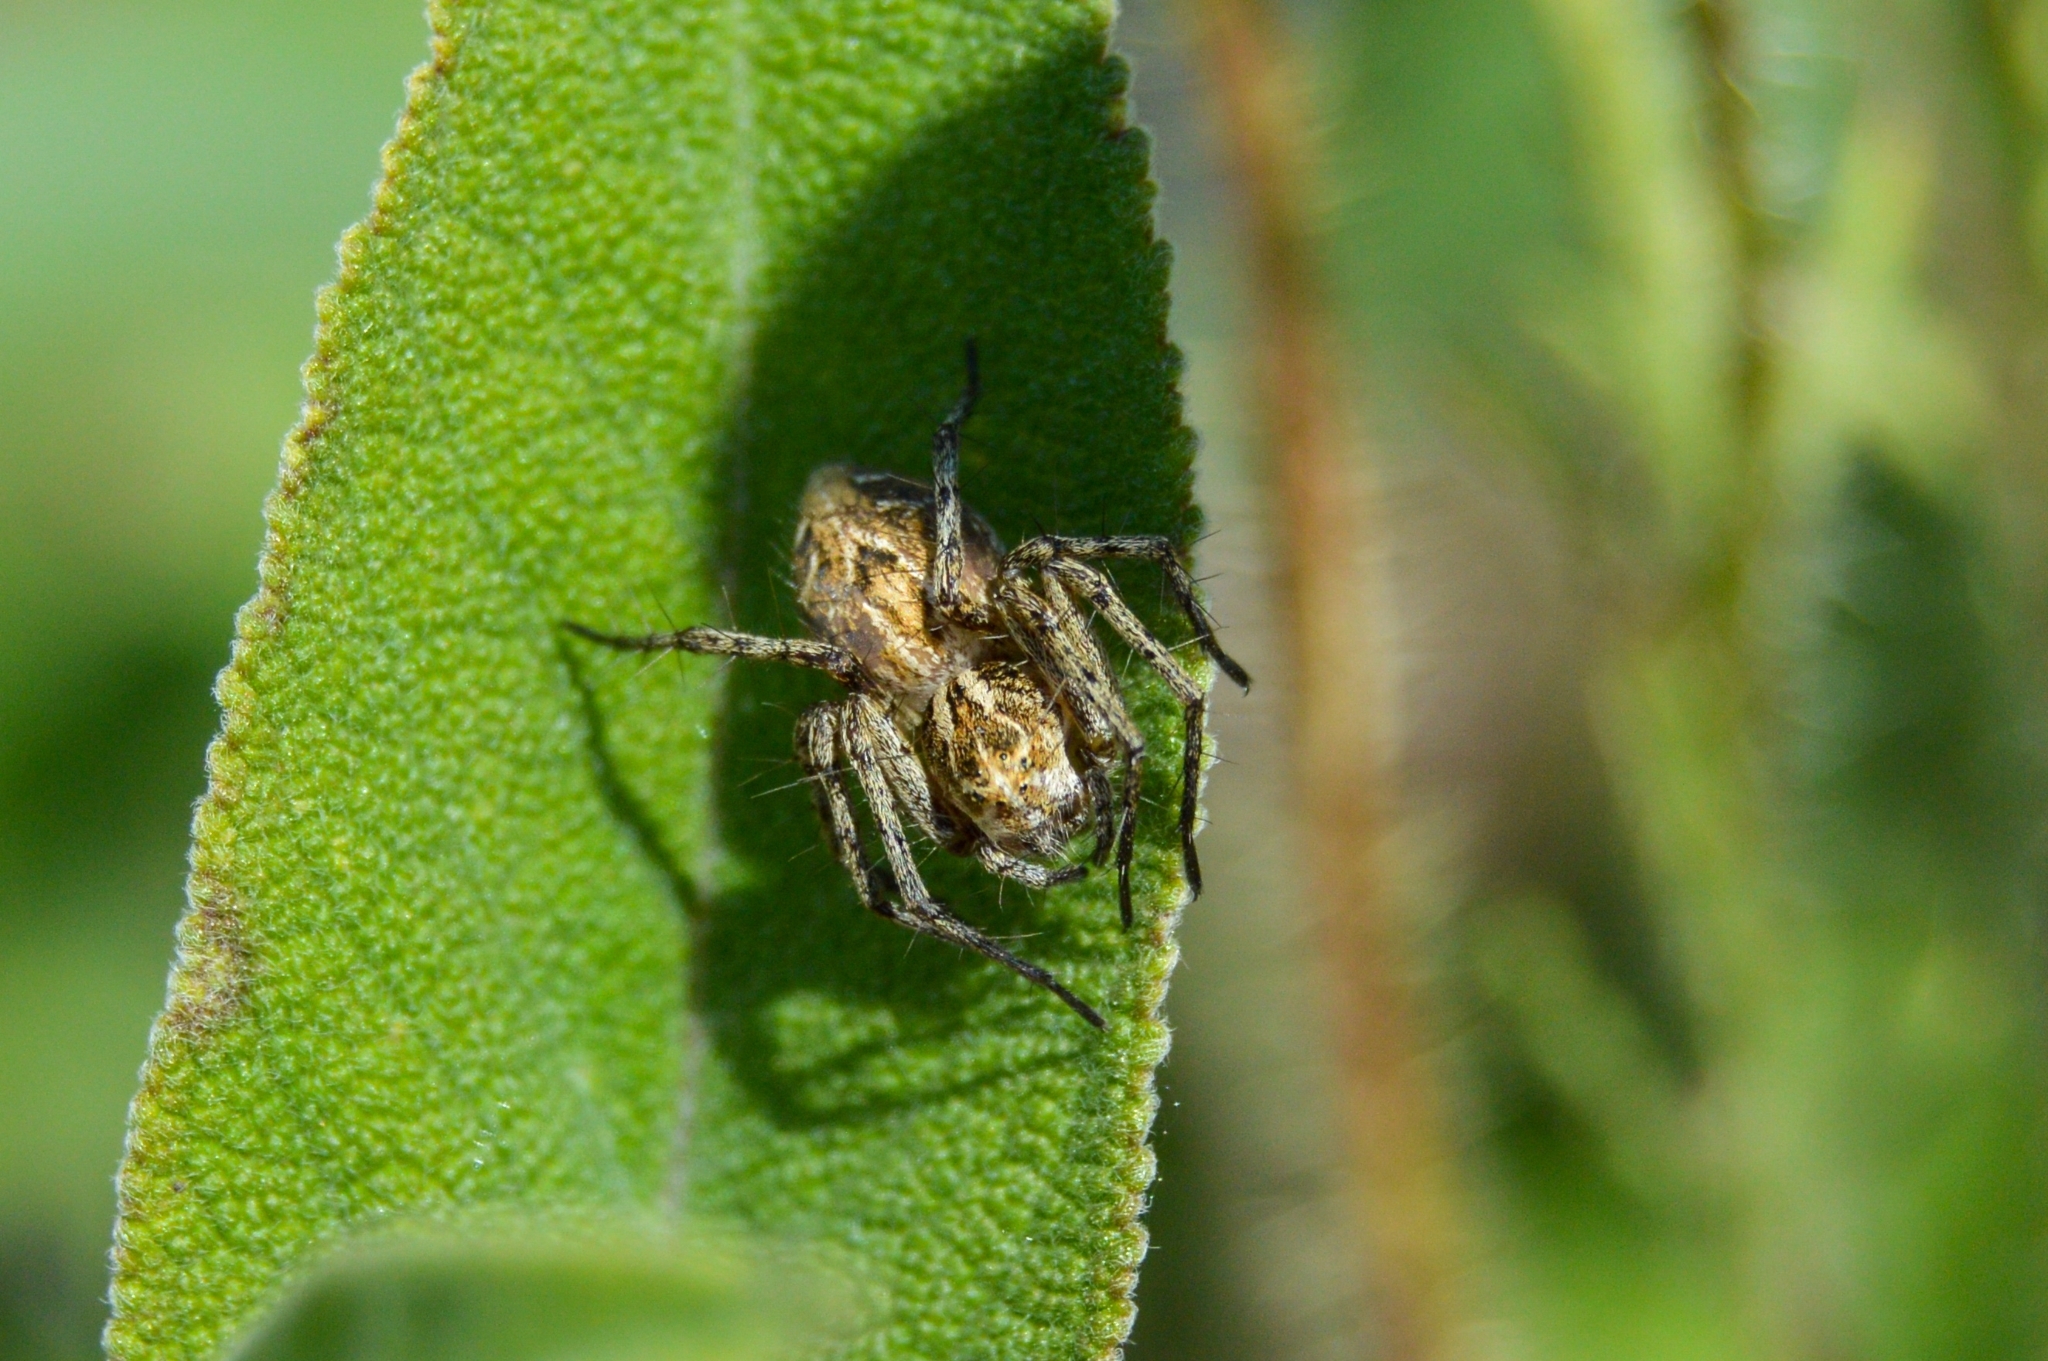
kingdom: Animalia
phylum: Arthropoda
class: Arachnida
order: Araneae
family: Oxyopidae
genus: Oxyopes
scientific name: Oxyopes heterophthalmus
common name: Lynx spider
